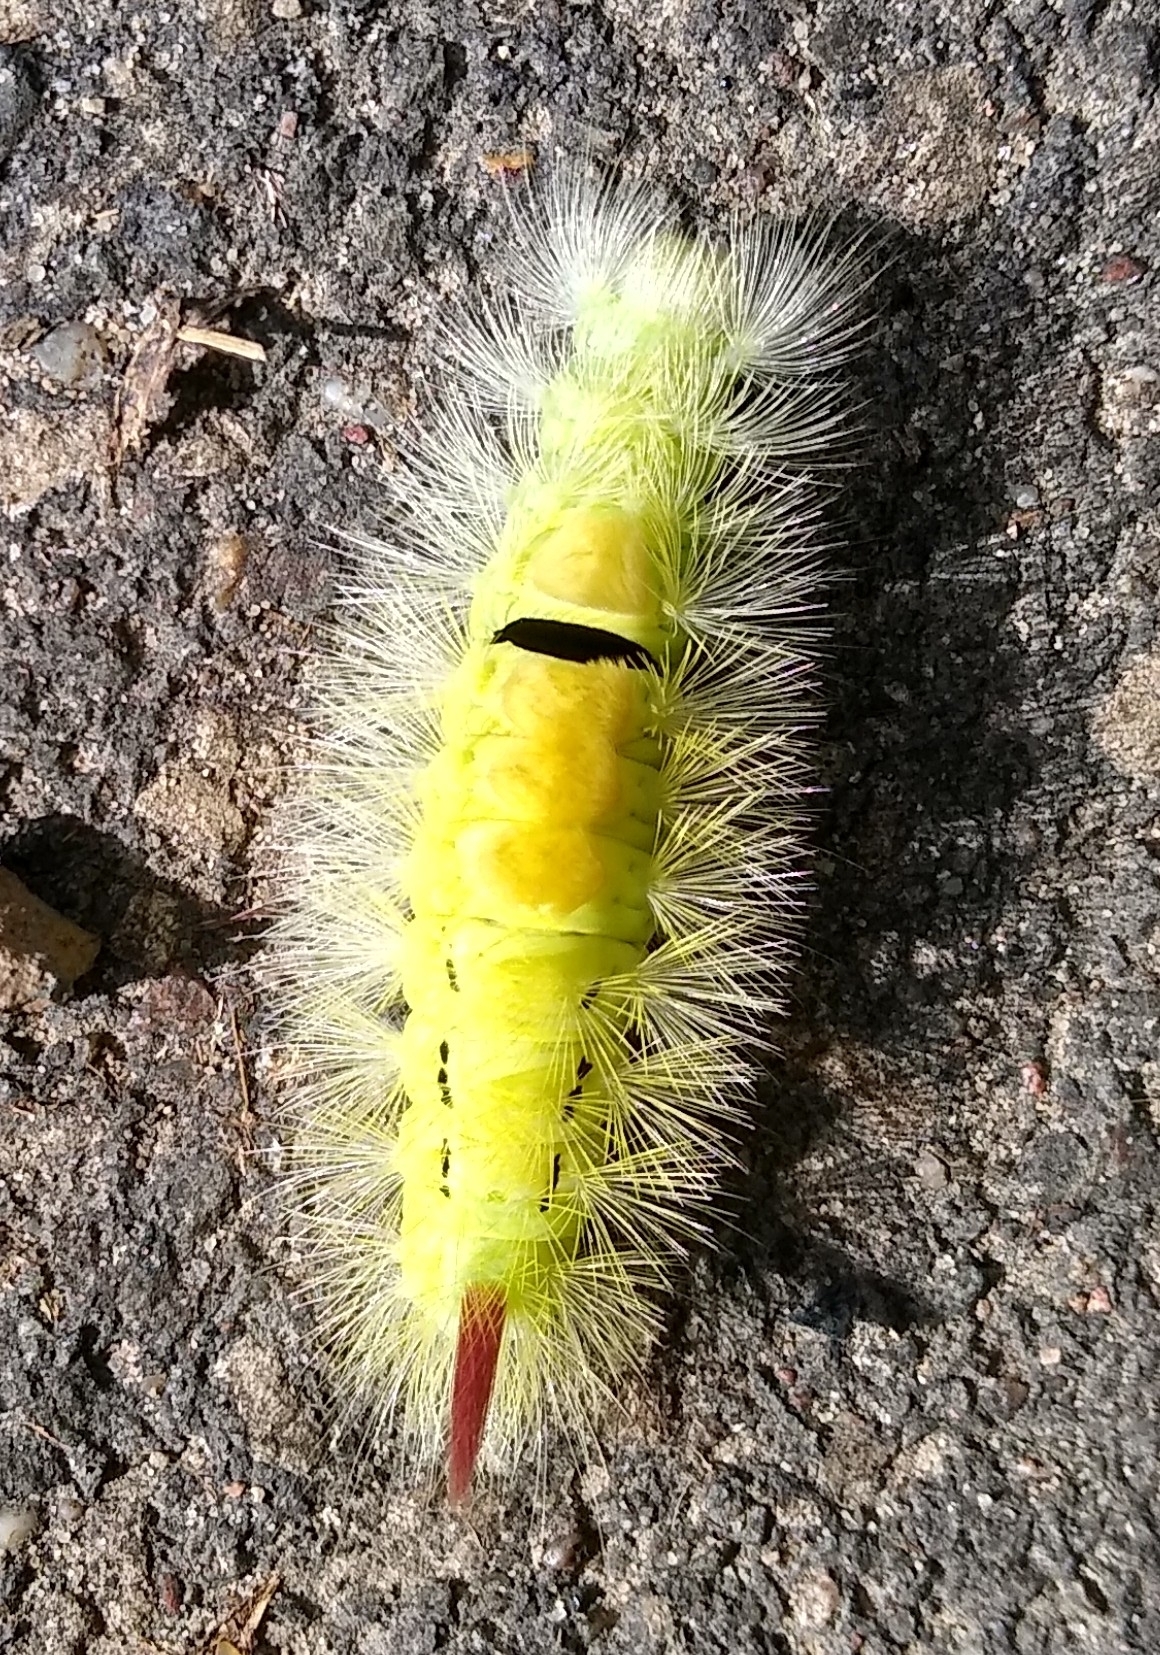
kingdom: Animalia
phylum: Arthropoda
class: Insecta
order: Lepidoptera
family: Erebidae
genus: Calliteara
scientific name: Calliteara pudibunda
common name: Pale tussock
